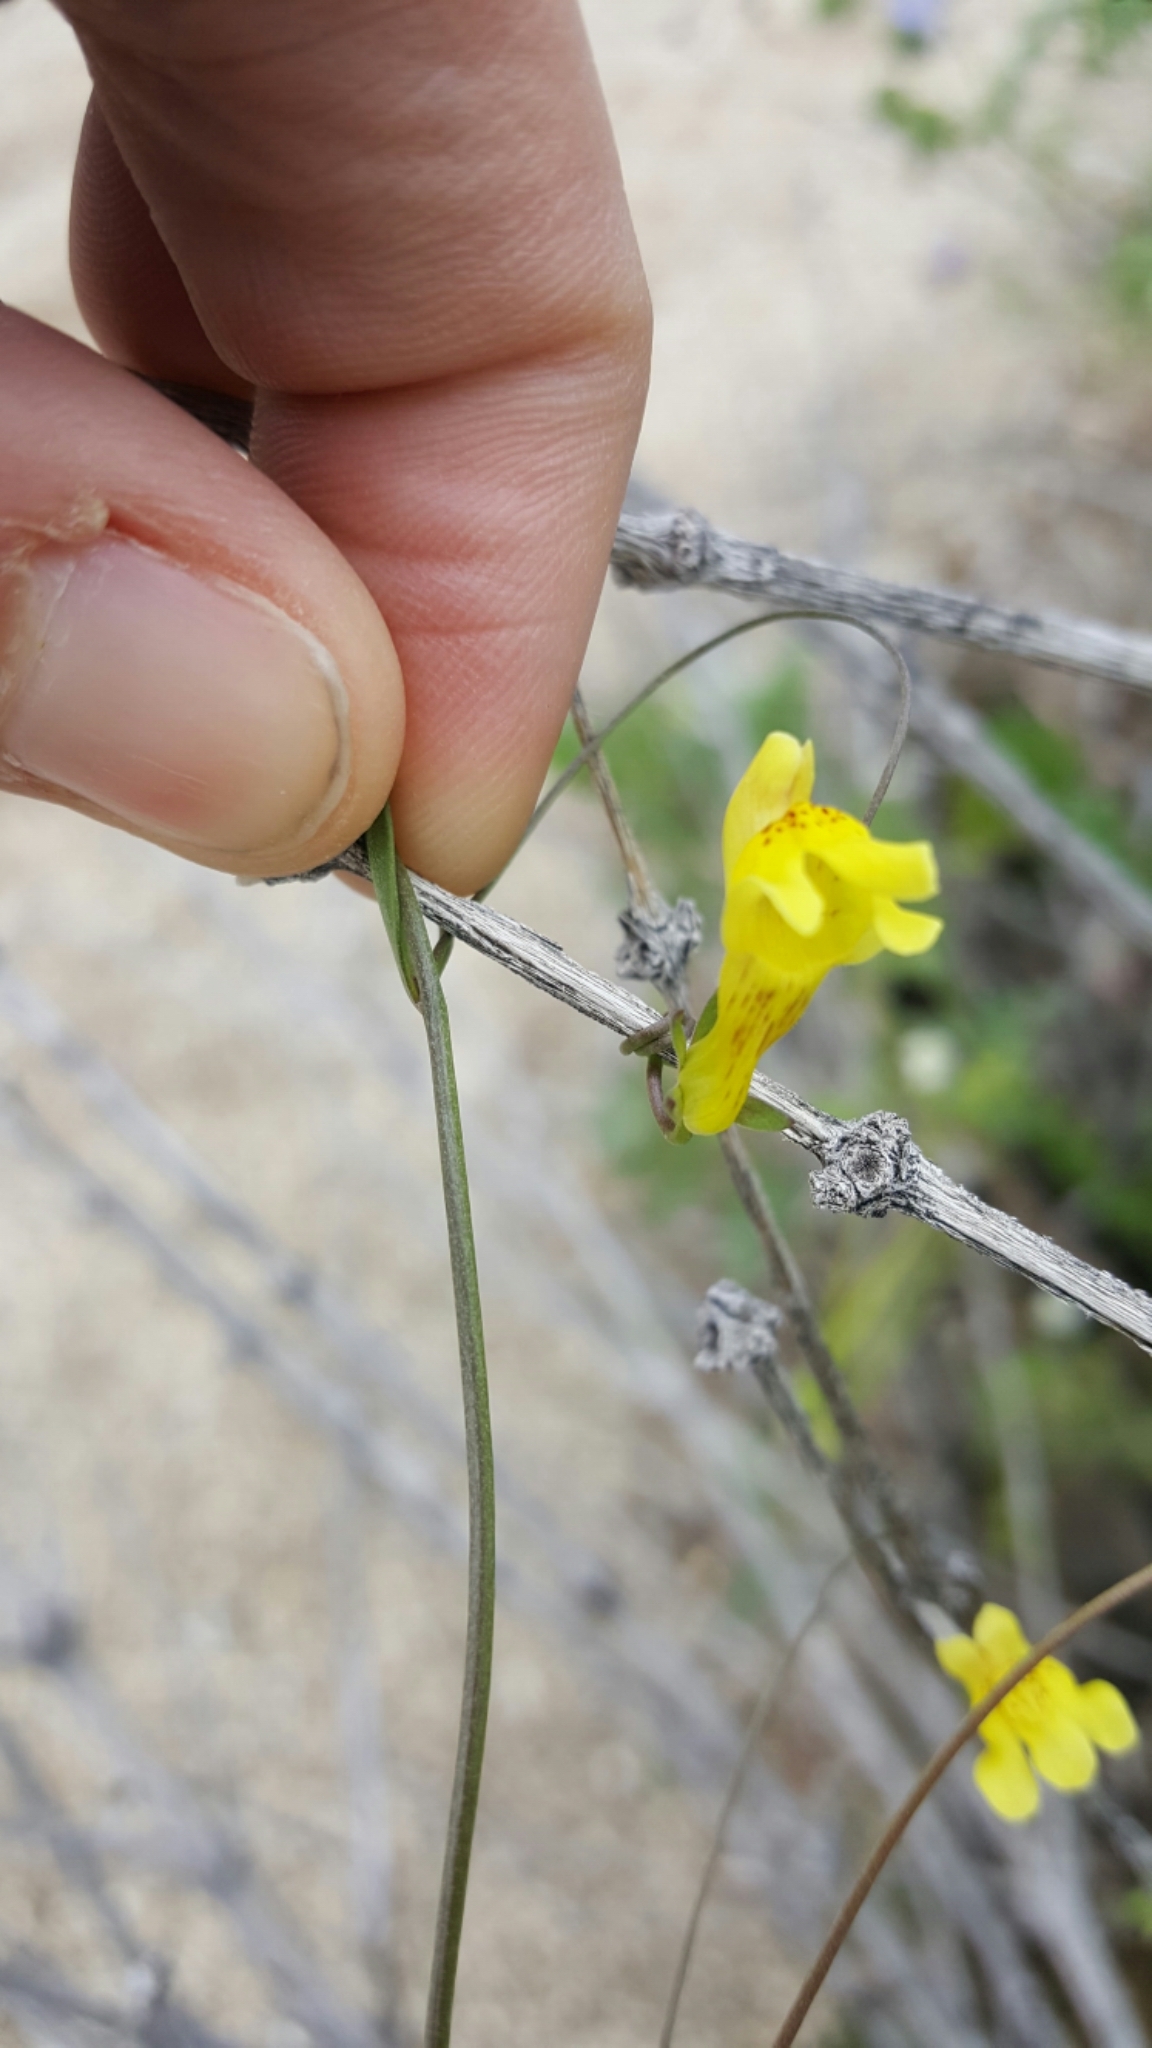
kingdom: Plantae
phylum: Tracheophyta
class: Magnoliopsida
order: Lamiales
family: Plantaginaceae
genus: Neogaerrhinum
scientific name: Neogaerrhinum filipes
